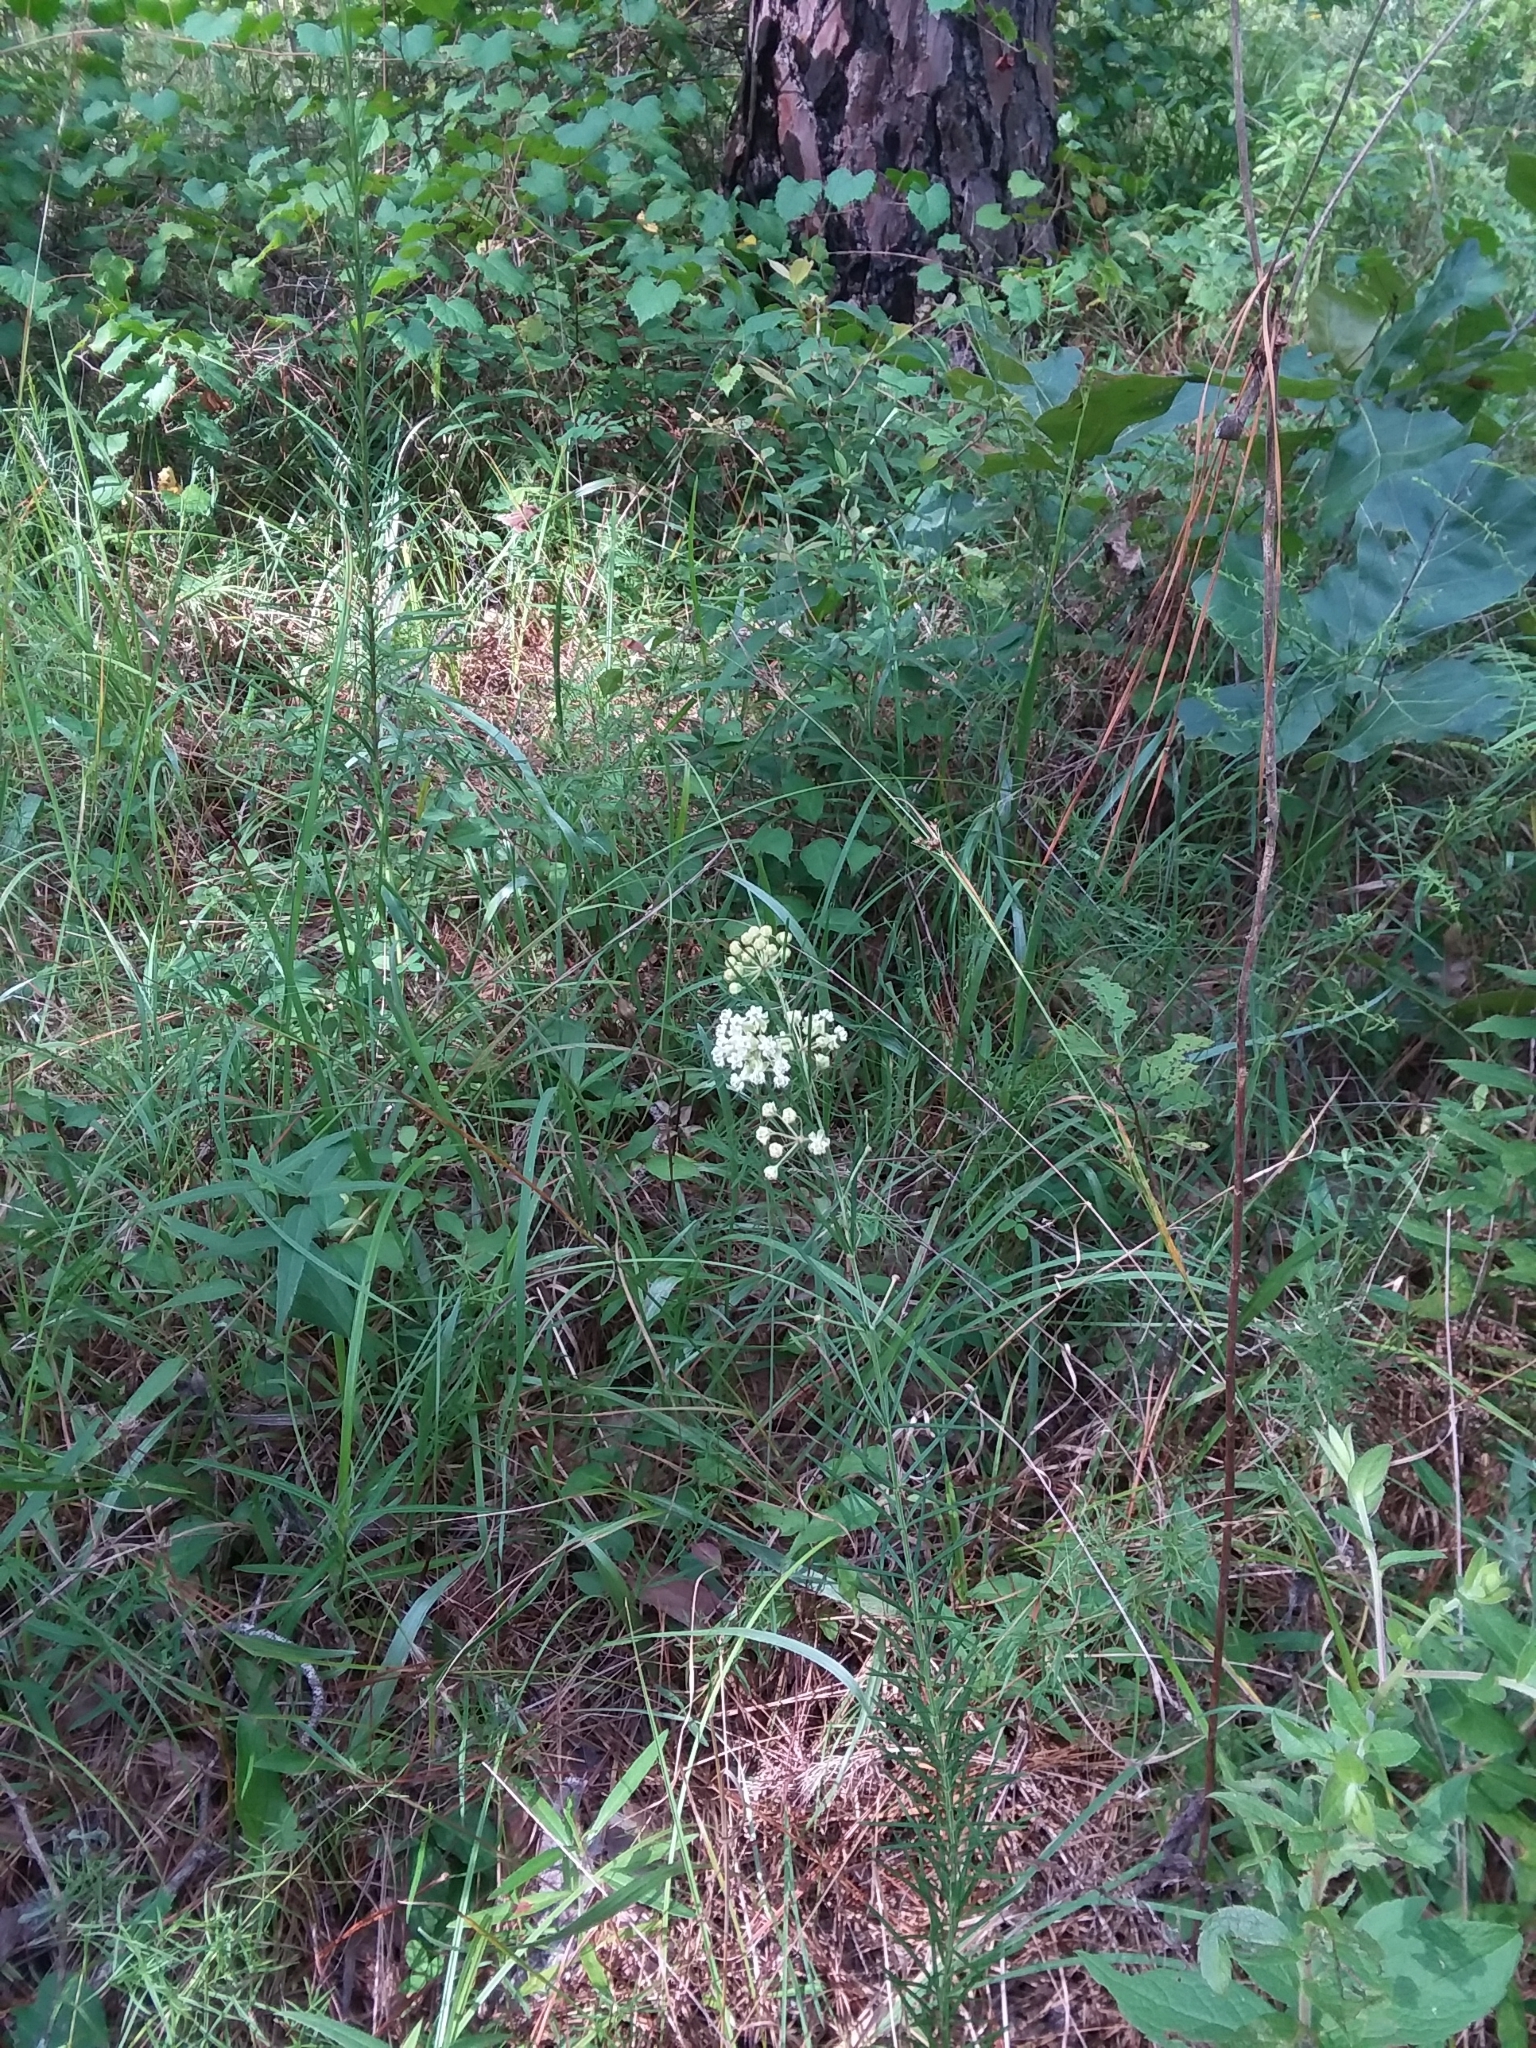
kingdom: Plantae
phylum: Tracheophyta
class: Magnoliopsida
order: Gentianales
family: Apocynaceae
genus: Asclepias
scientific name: Asclepias verticillata
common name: Eastern whorled milkweed
